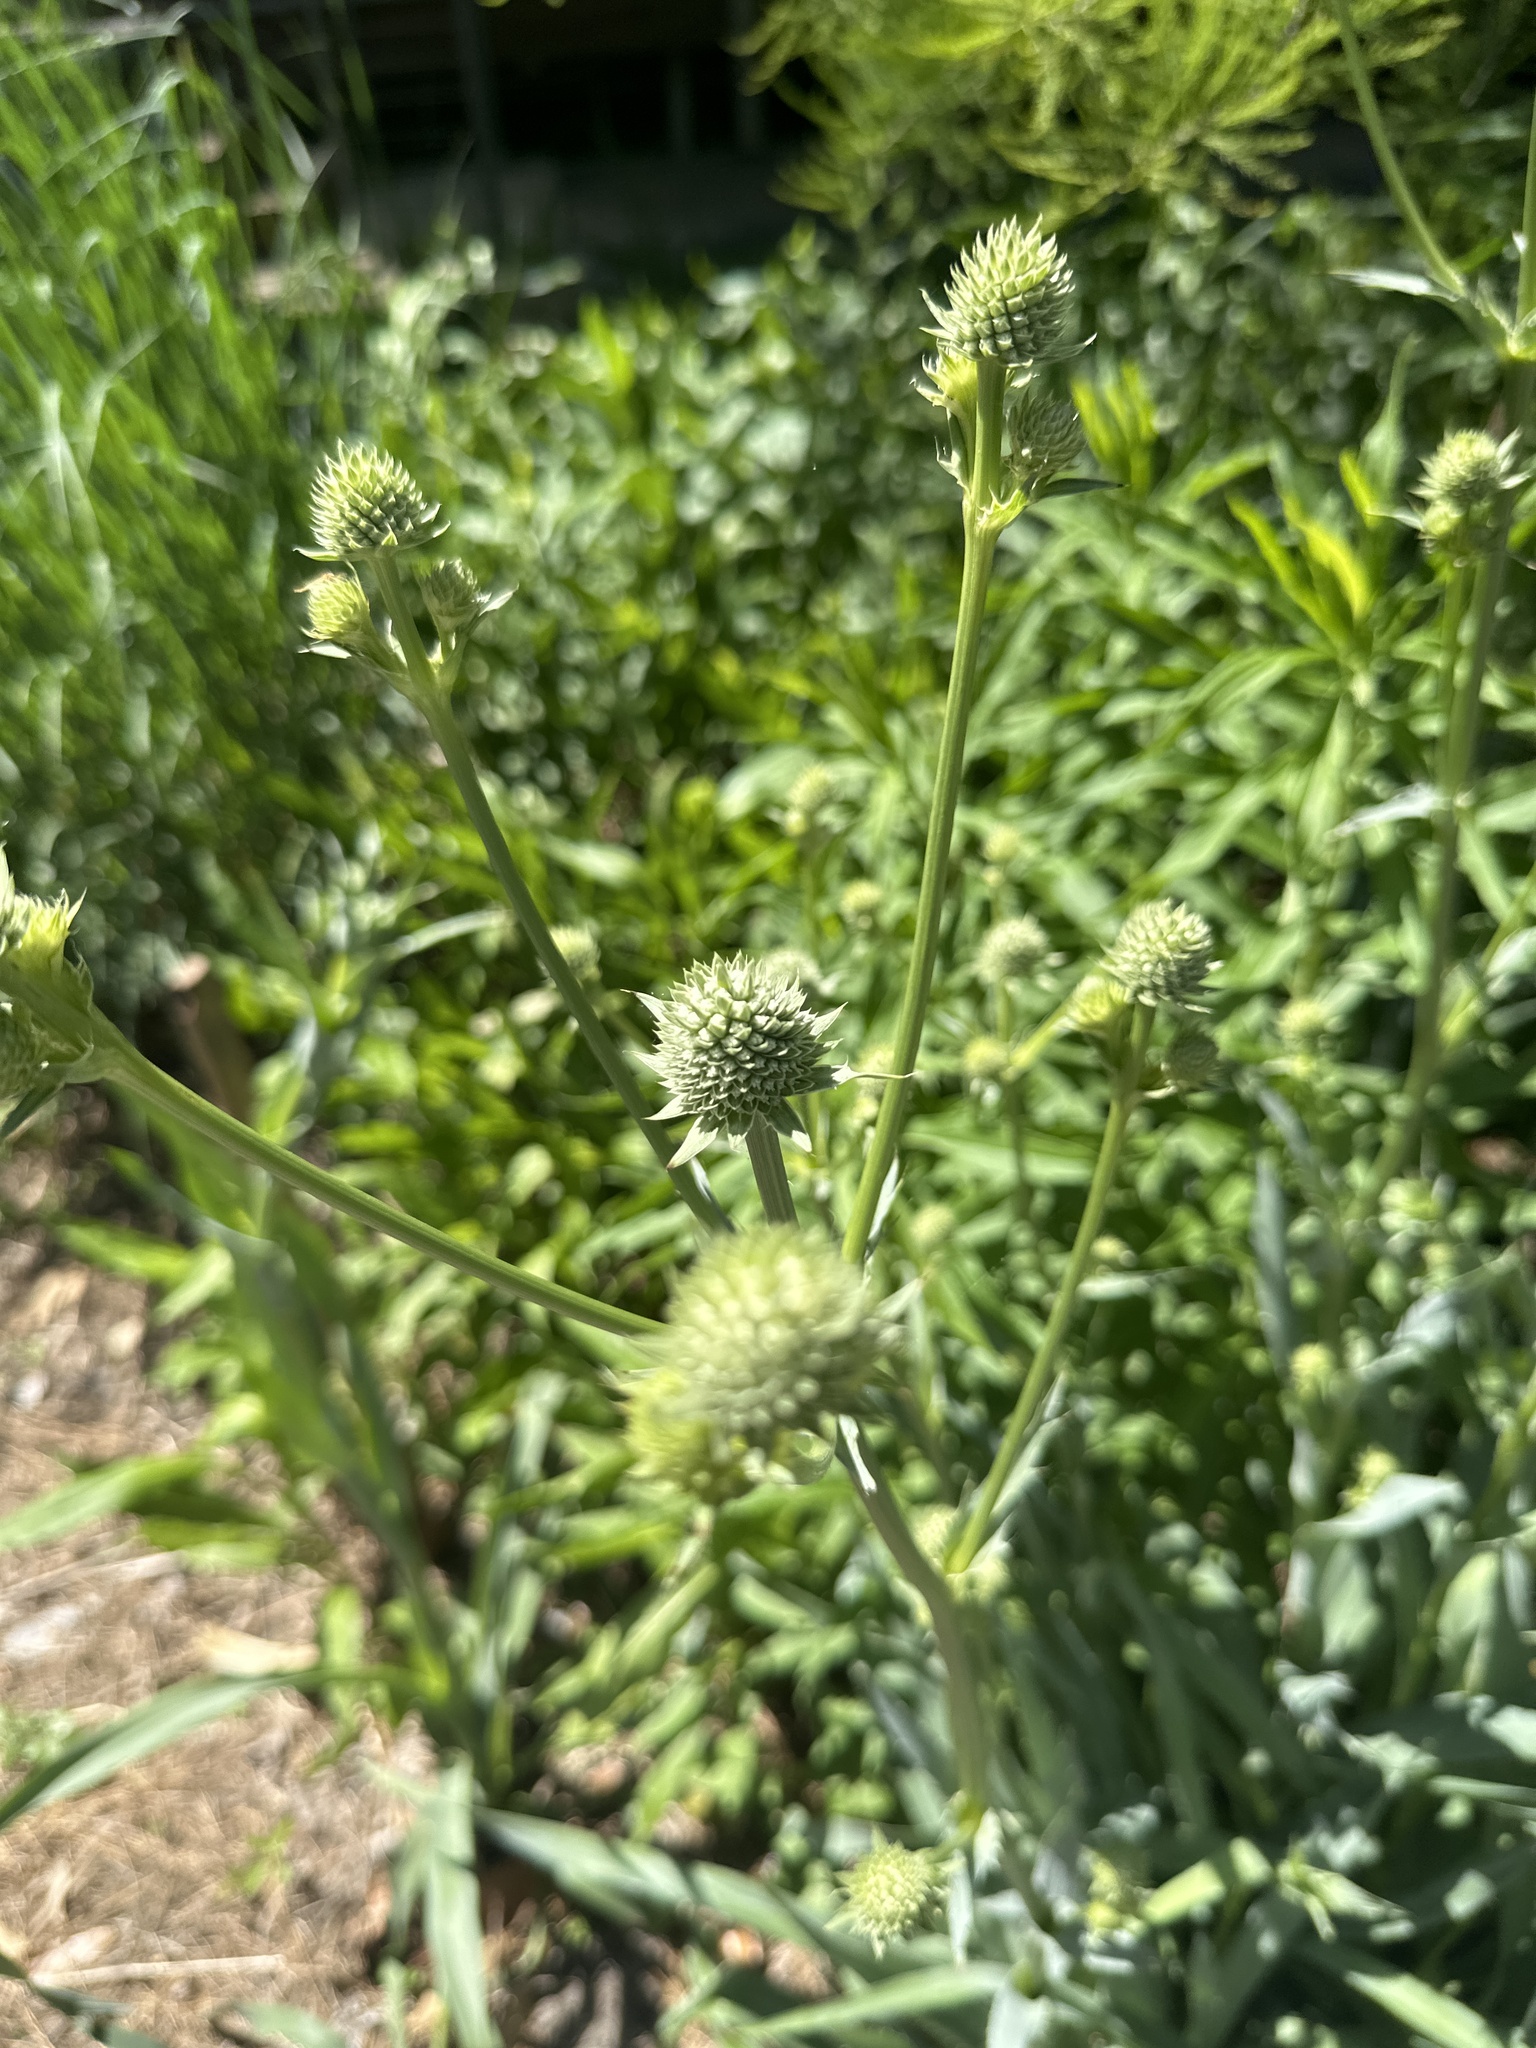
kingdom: Plantae
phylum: Tracheophyta
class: Magnoliopsida
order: Apiales
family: Apiaceae
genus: Eryngium
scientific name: Eryngium yuccifolium
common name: Button eryngo
